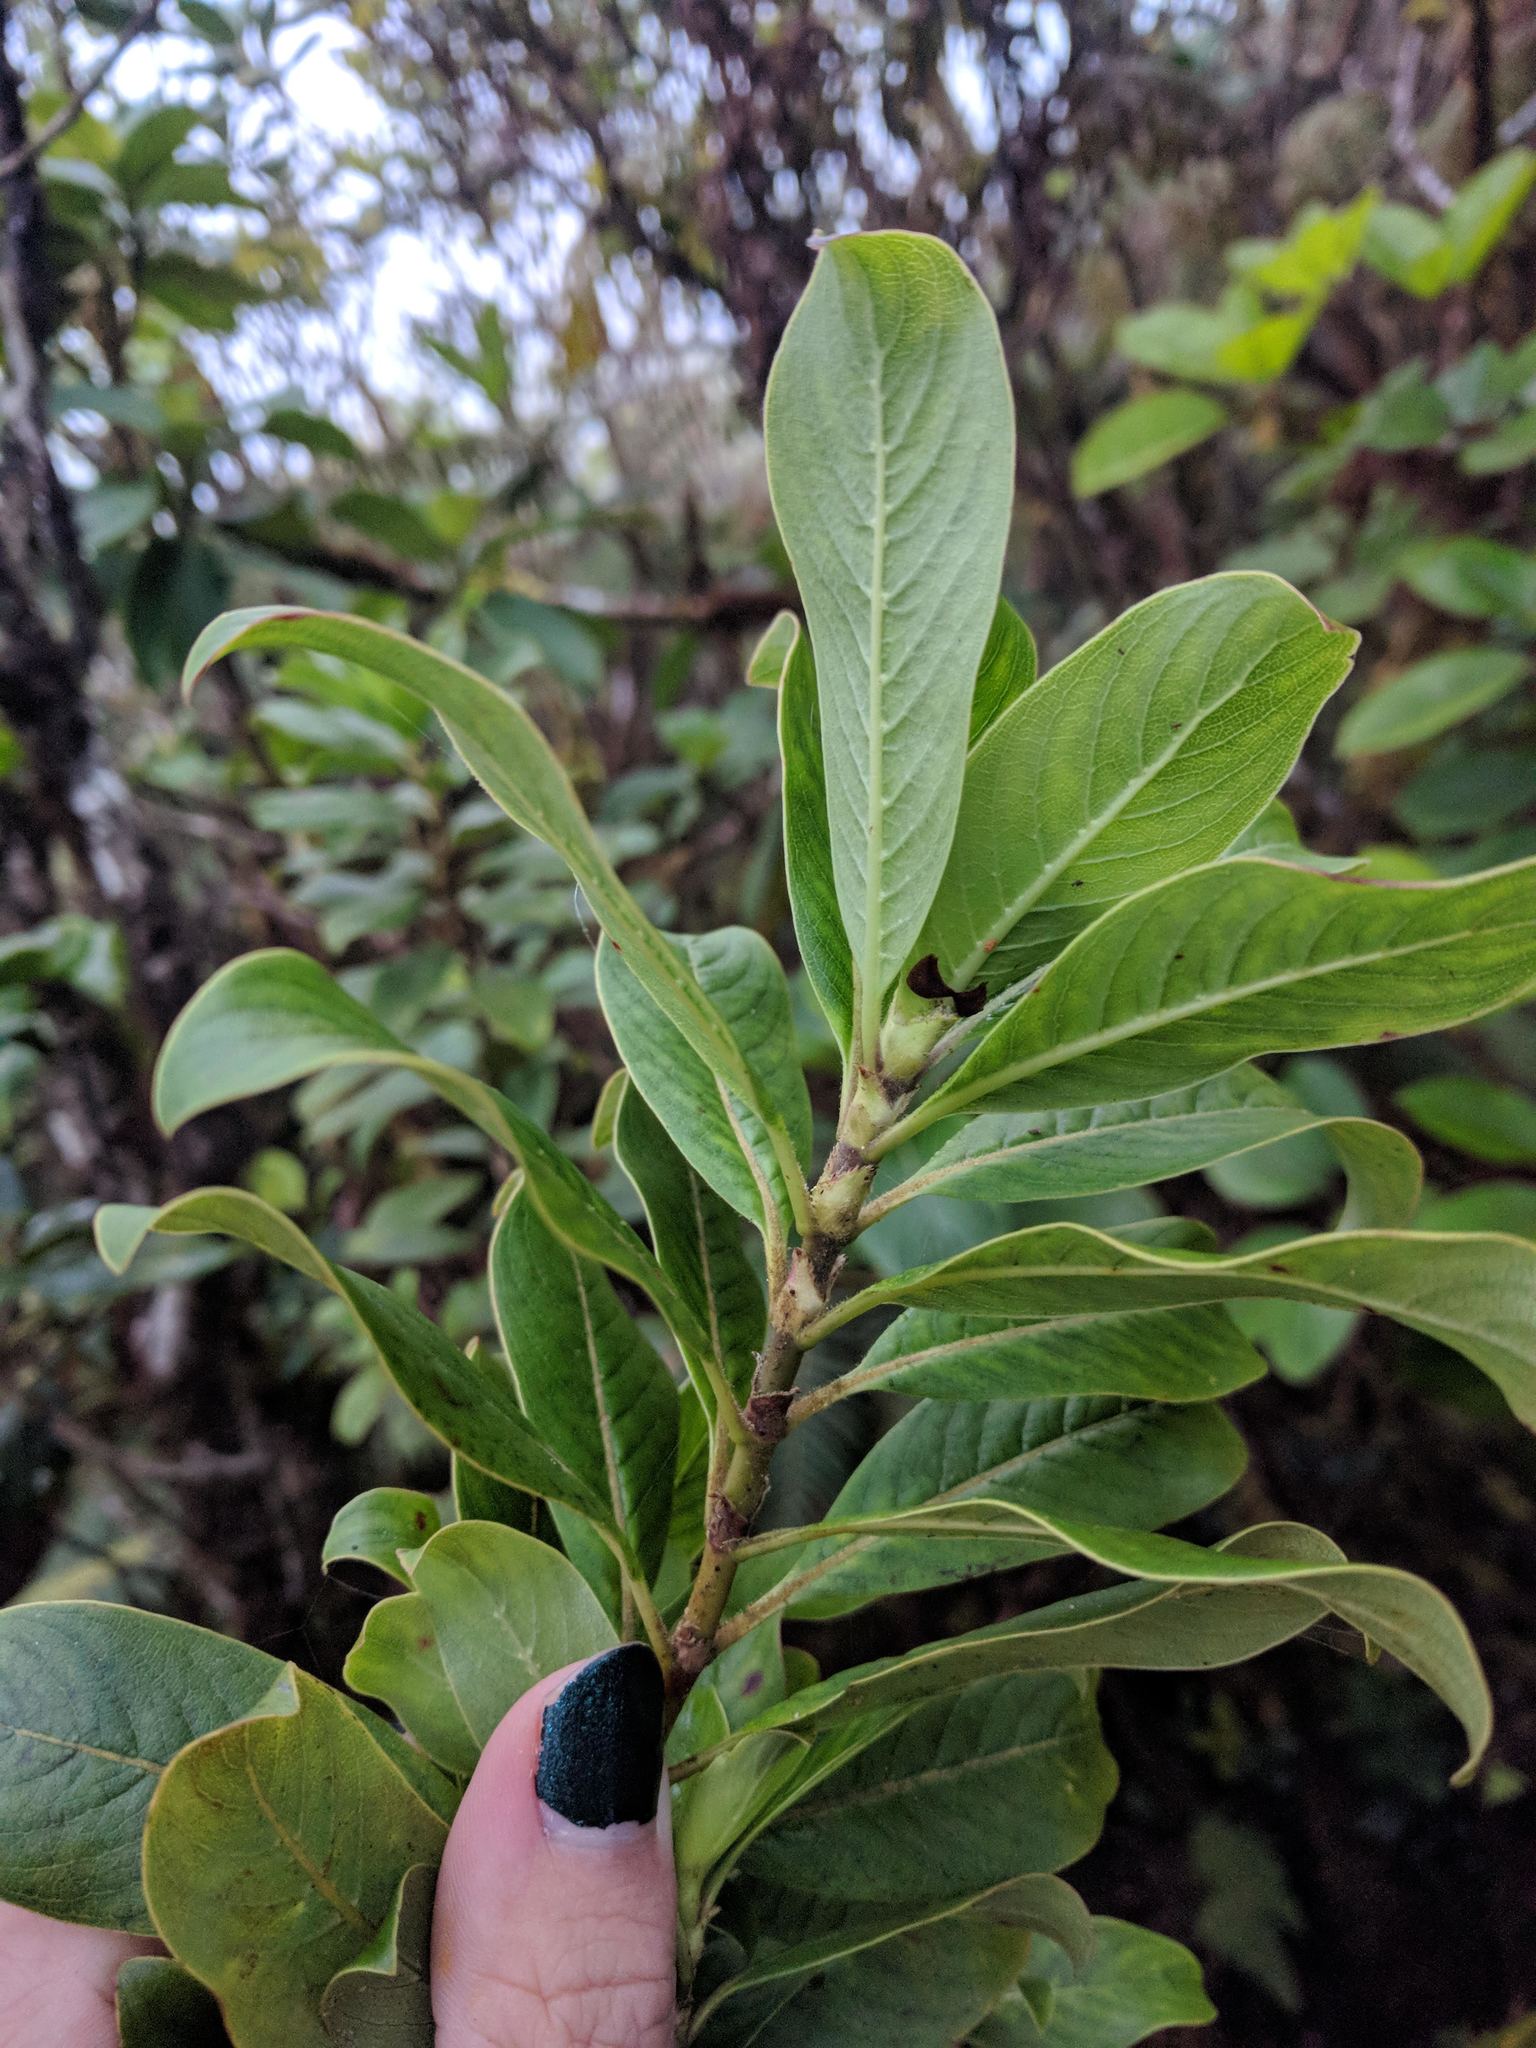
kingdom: Plantae
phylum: Tracheophyta
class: Magnoliopsida
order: Gentianales
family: Rubiaceae
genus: Coprosma
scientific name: Coprosma ochracea
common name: Maui mirrorplant
